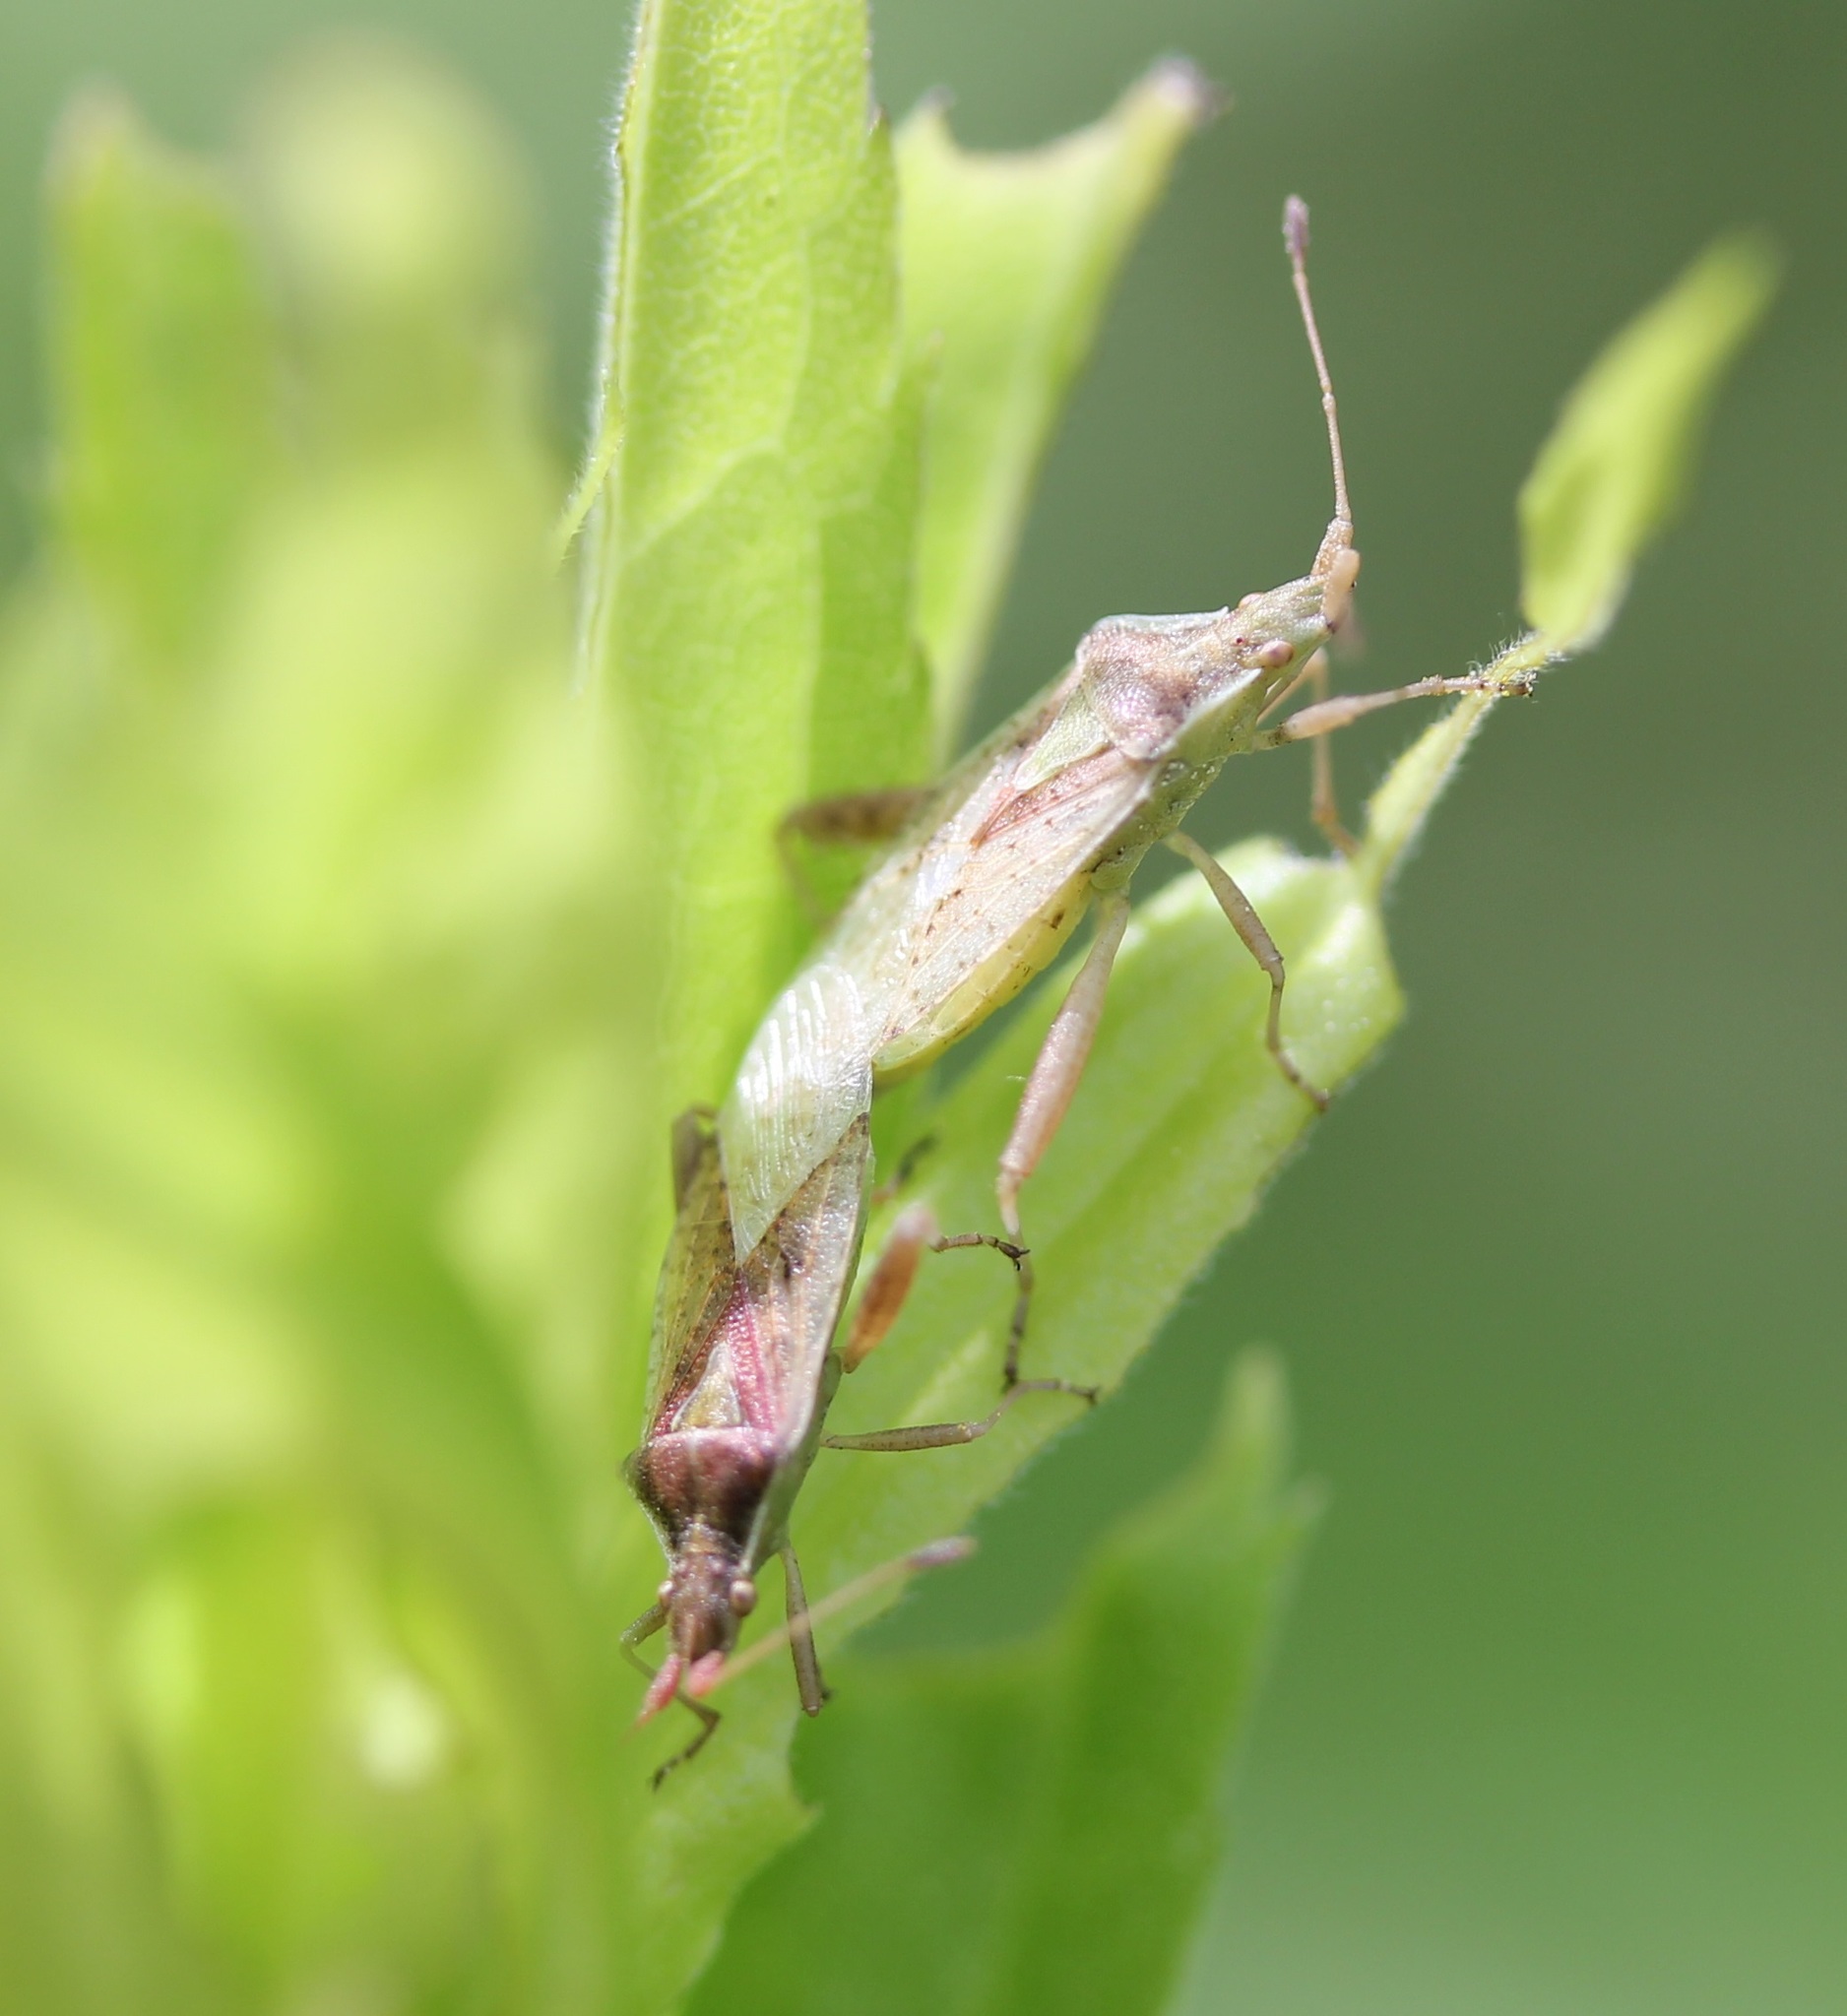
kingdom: Animalia
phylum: Arthropoda
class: Insecta
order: Hemiptera
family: Rhopalidae
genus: Harmostes
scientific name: Harmostes reflexulus
